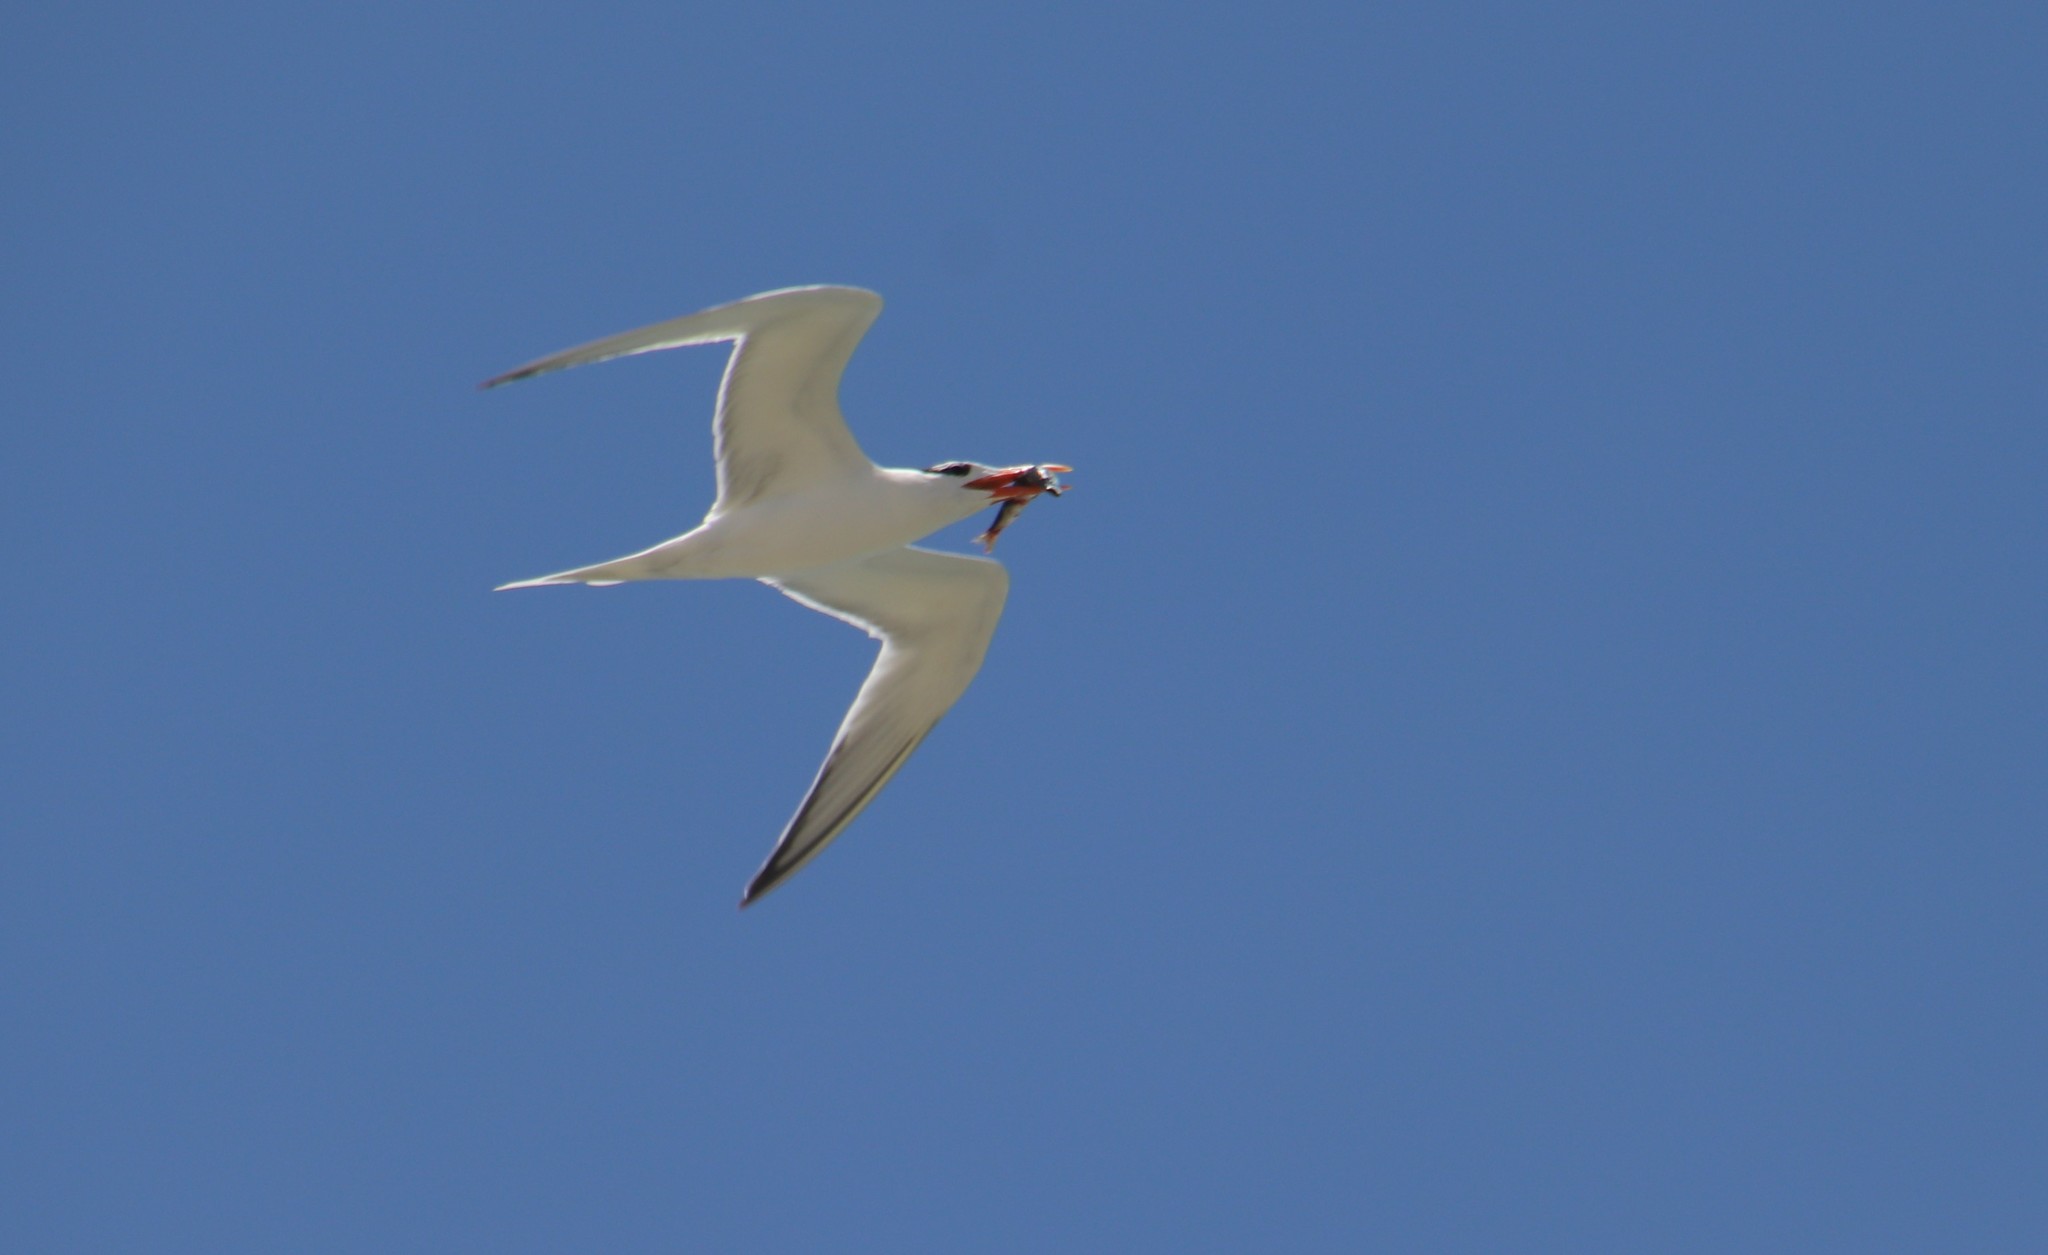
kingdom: Animalia
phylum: Chordata
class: Aves
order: Charadriiformes
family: Laridae
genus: Thalasseus
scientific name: Thalasseus maximus
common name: Royal tern
